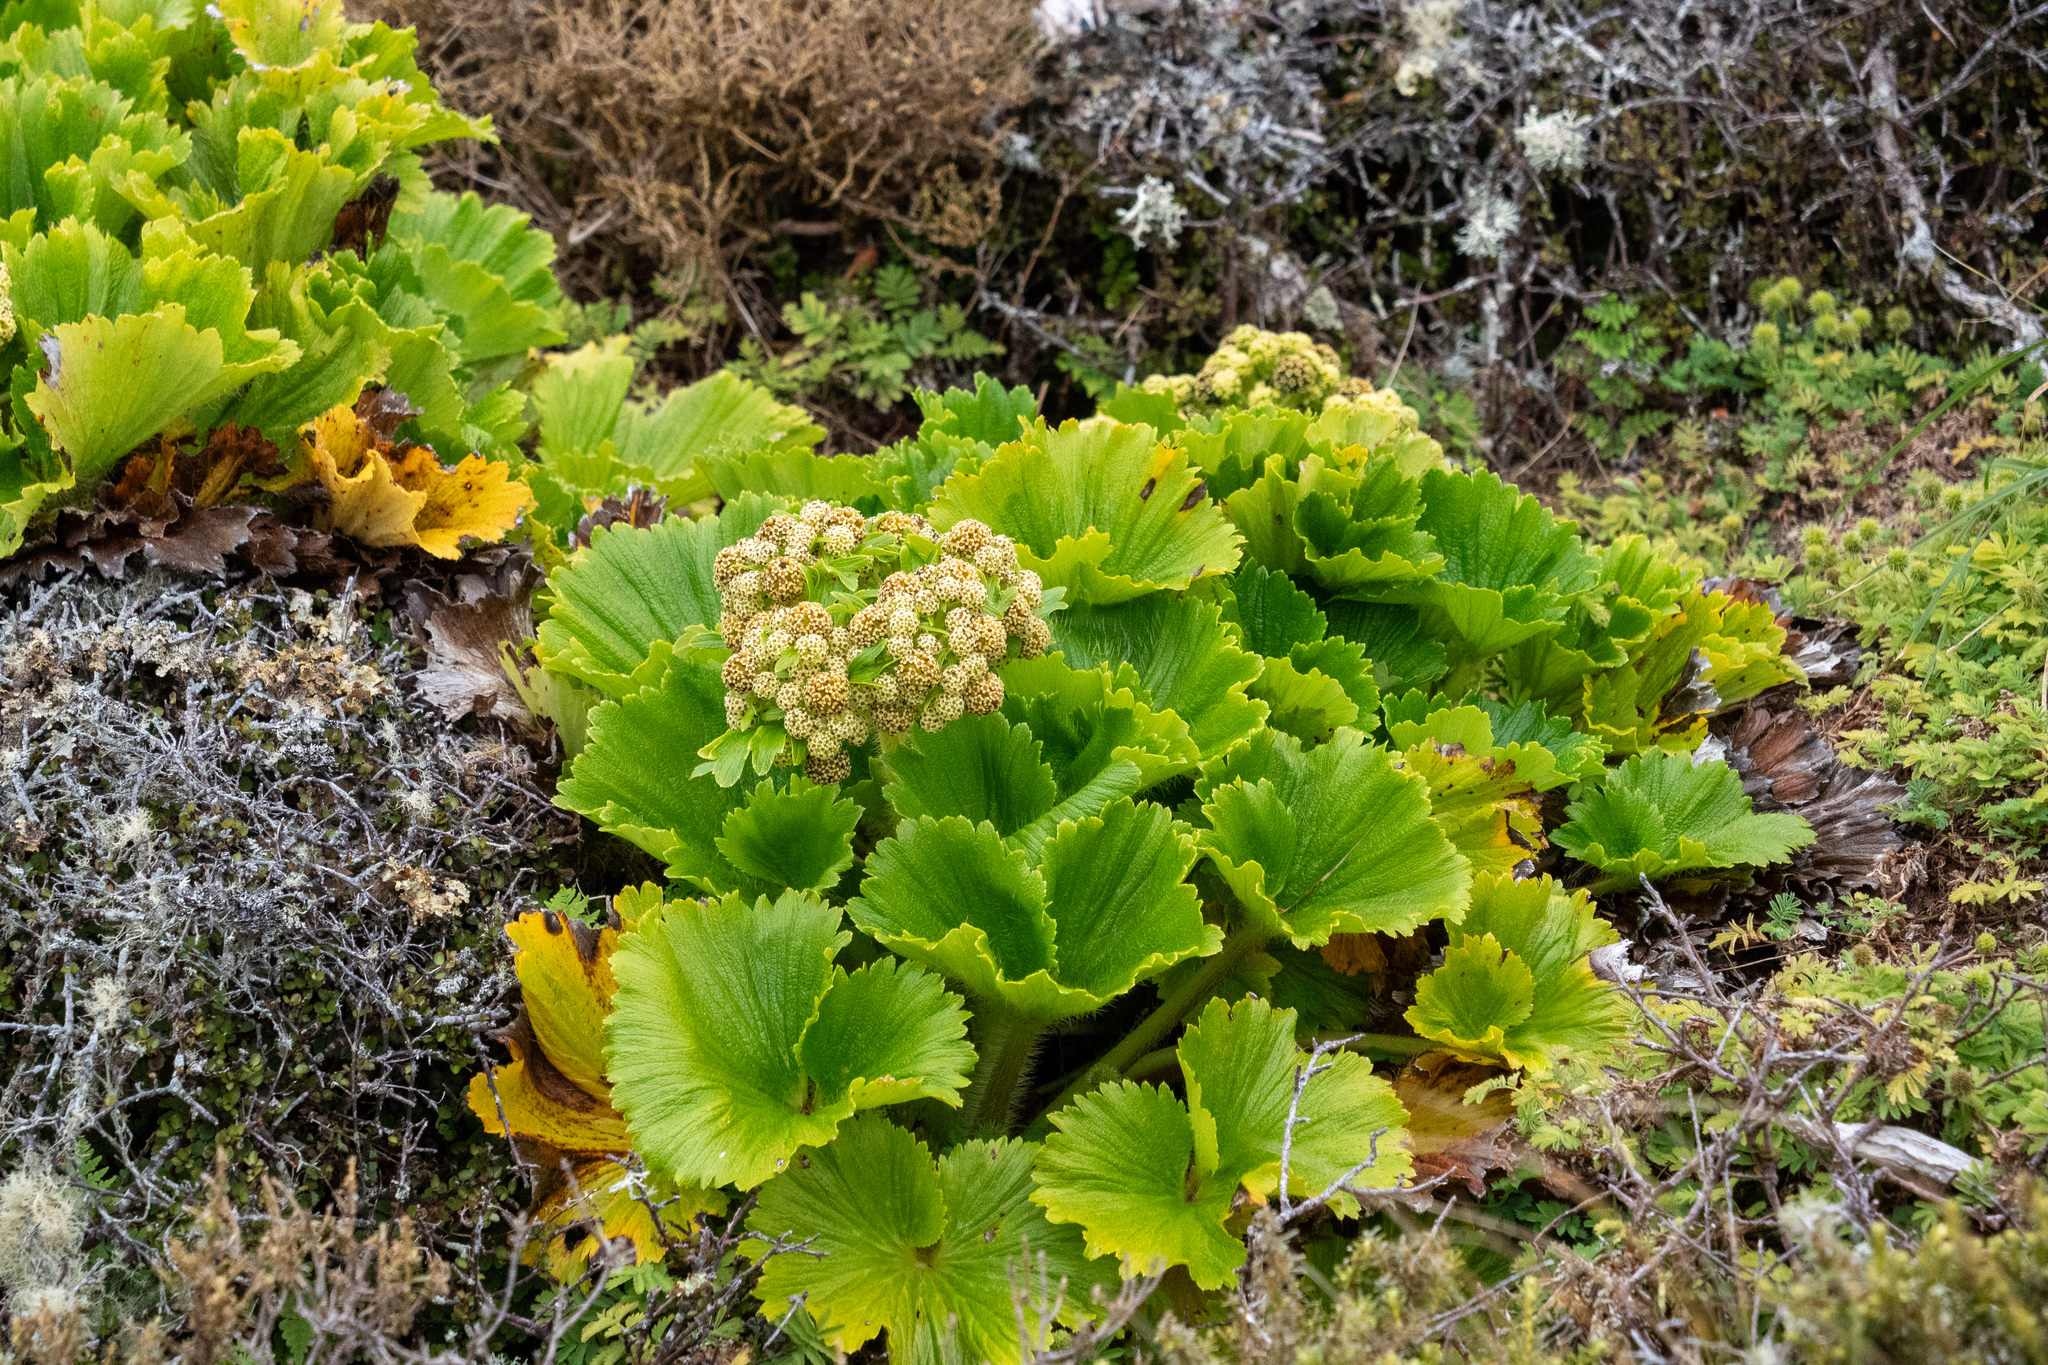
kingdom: Plantae
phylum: Tracheophyta
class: Magnoliopsida
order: Apiales
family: Apiaceae
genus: Azorella
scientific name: Azorella polaris
